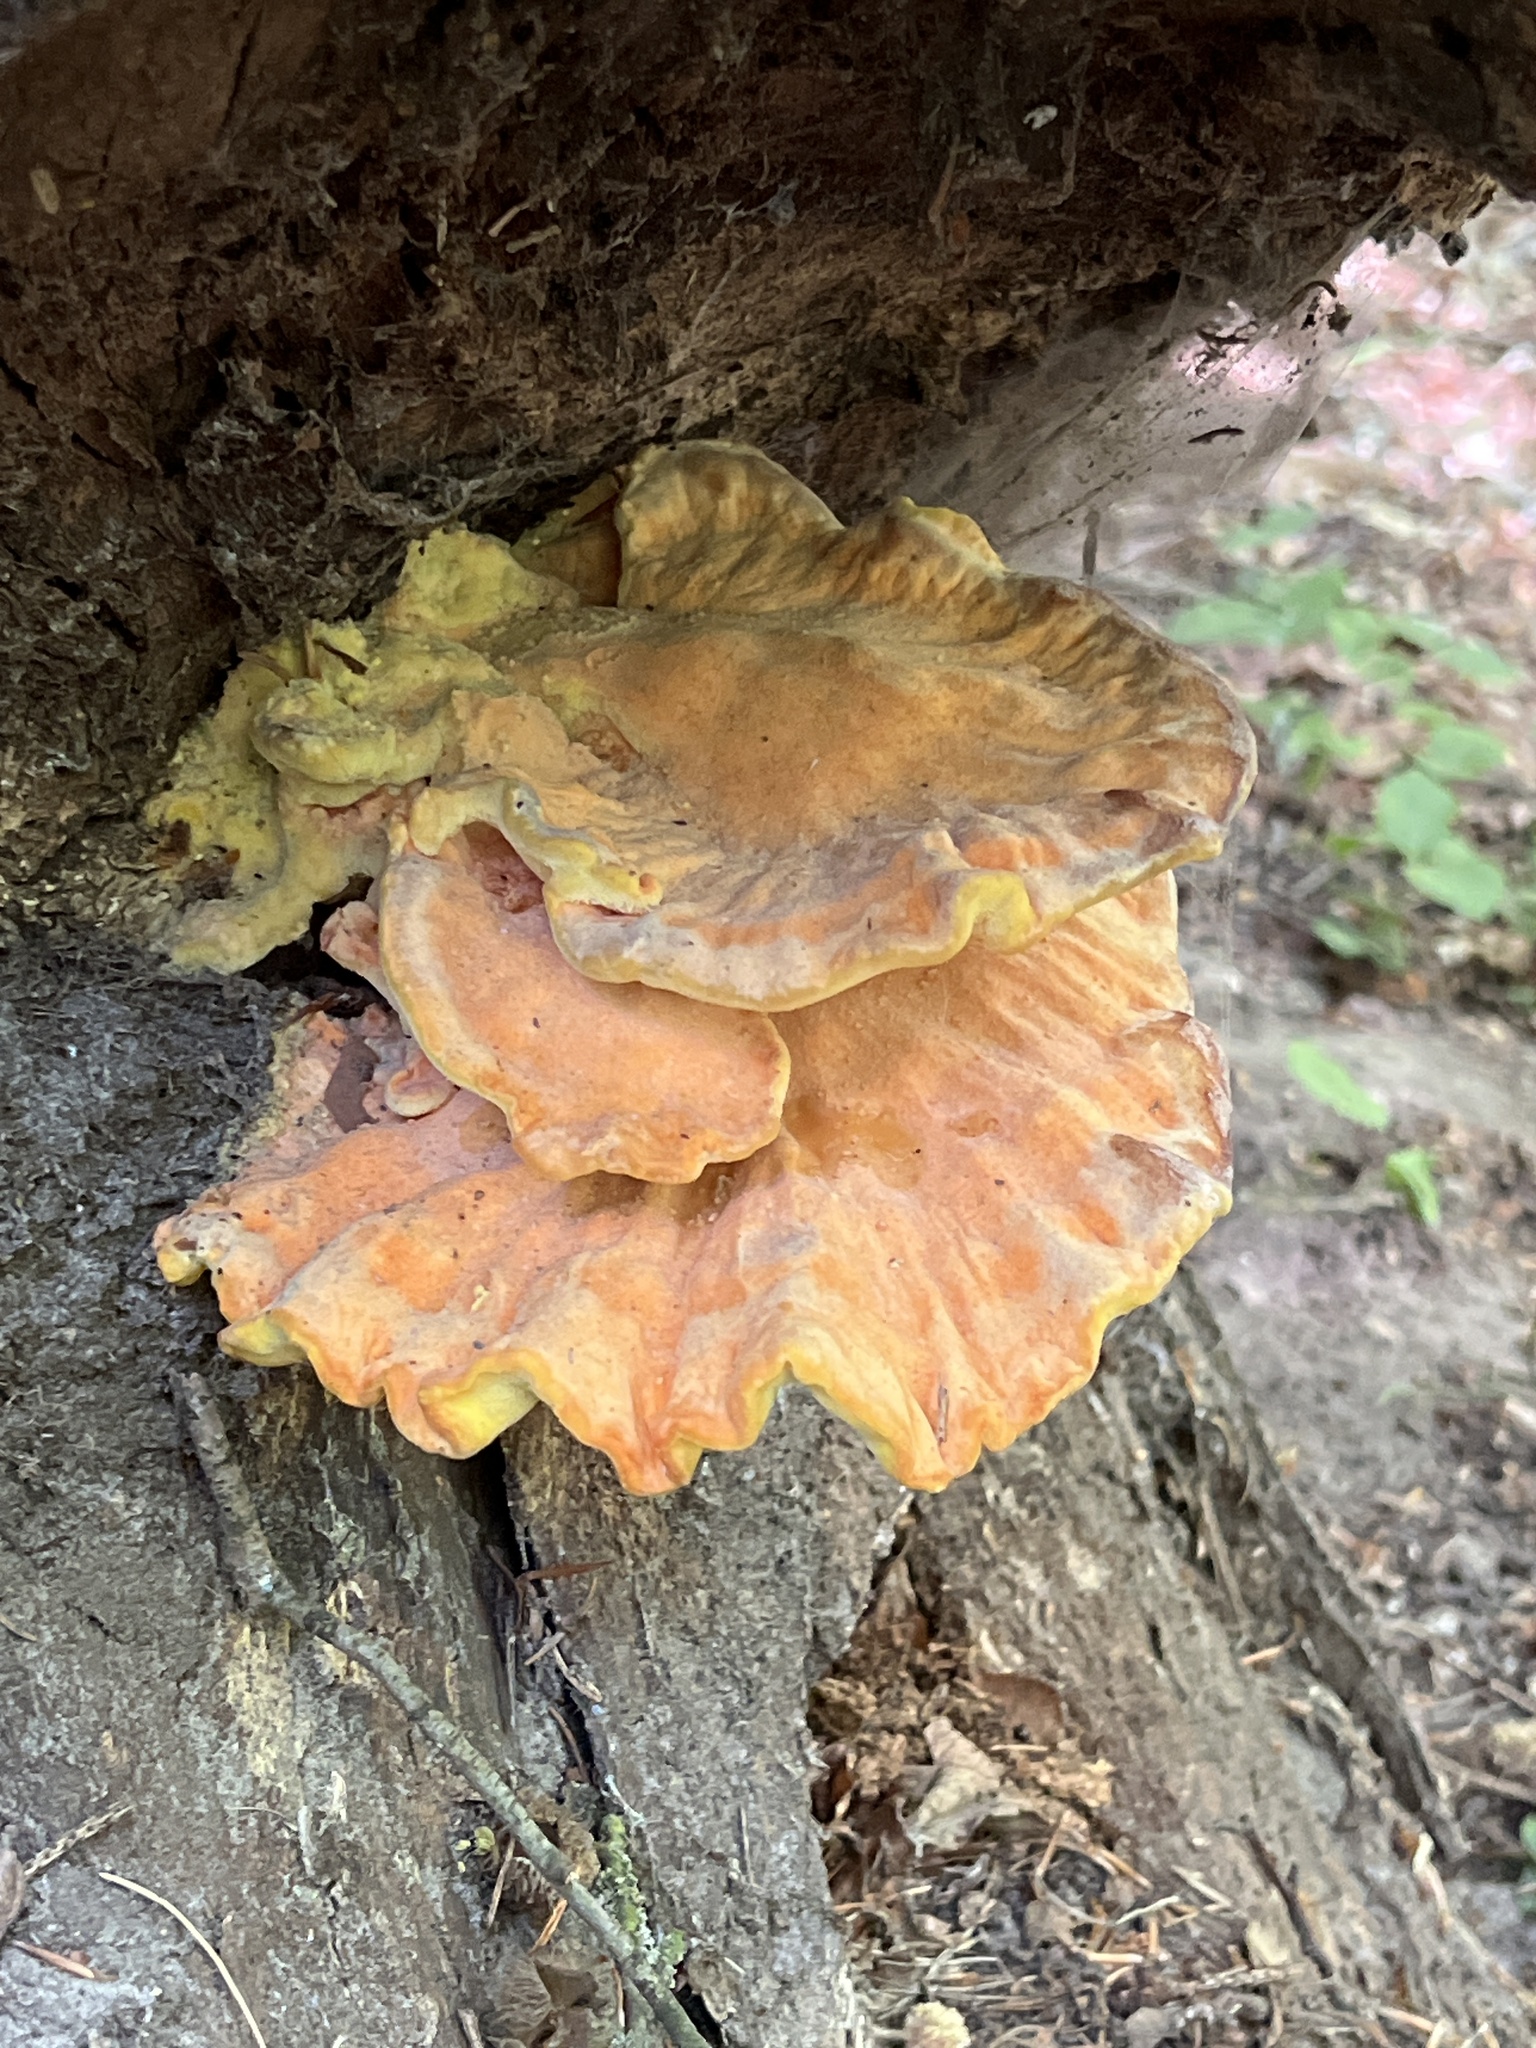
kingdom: Fungi
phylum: Basidiomycota
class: Agaricomycetes
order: Polyporales
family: Laetiporaceae
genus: Laetiporus
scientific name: Laetiporus sulphureus
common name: Chicken of the woods
